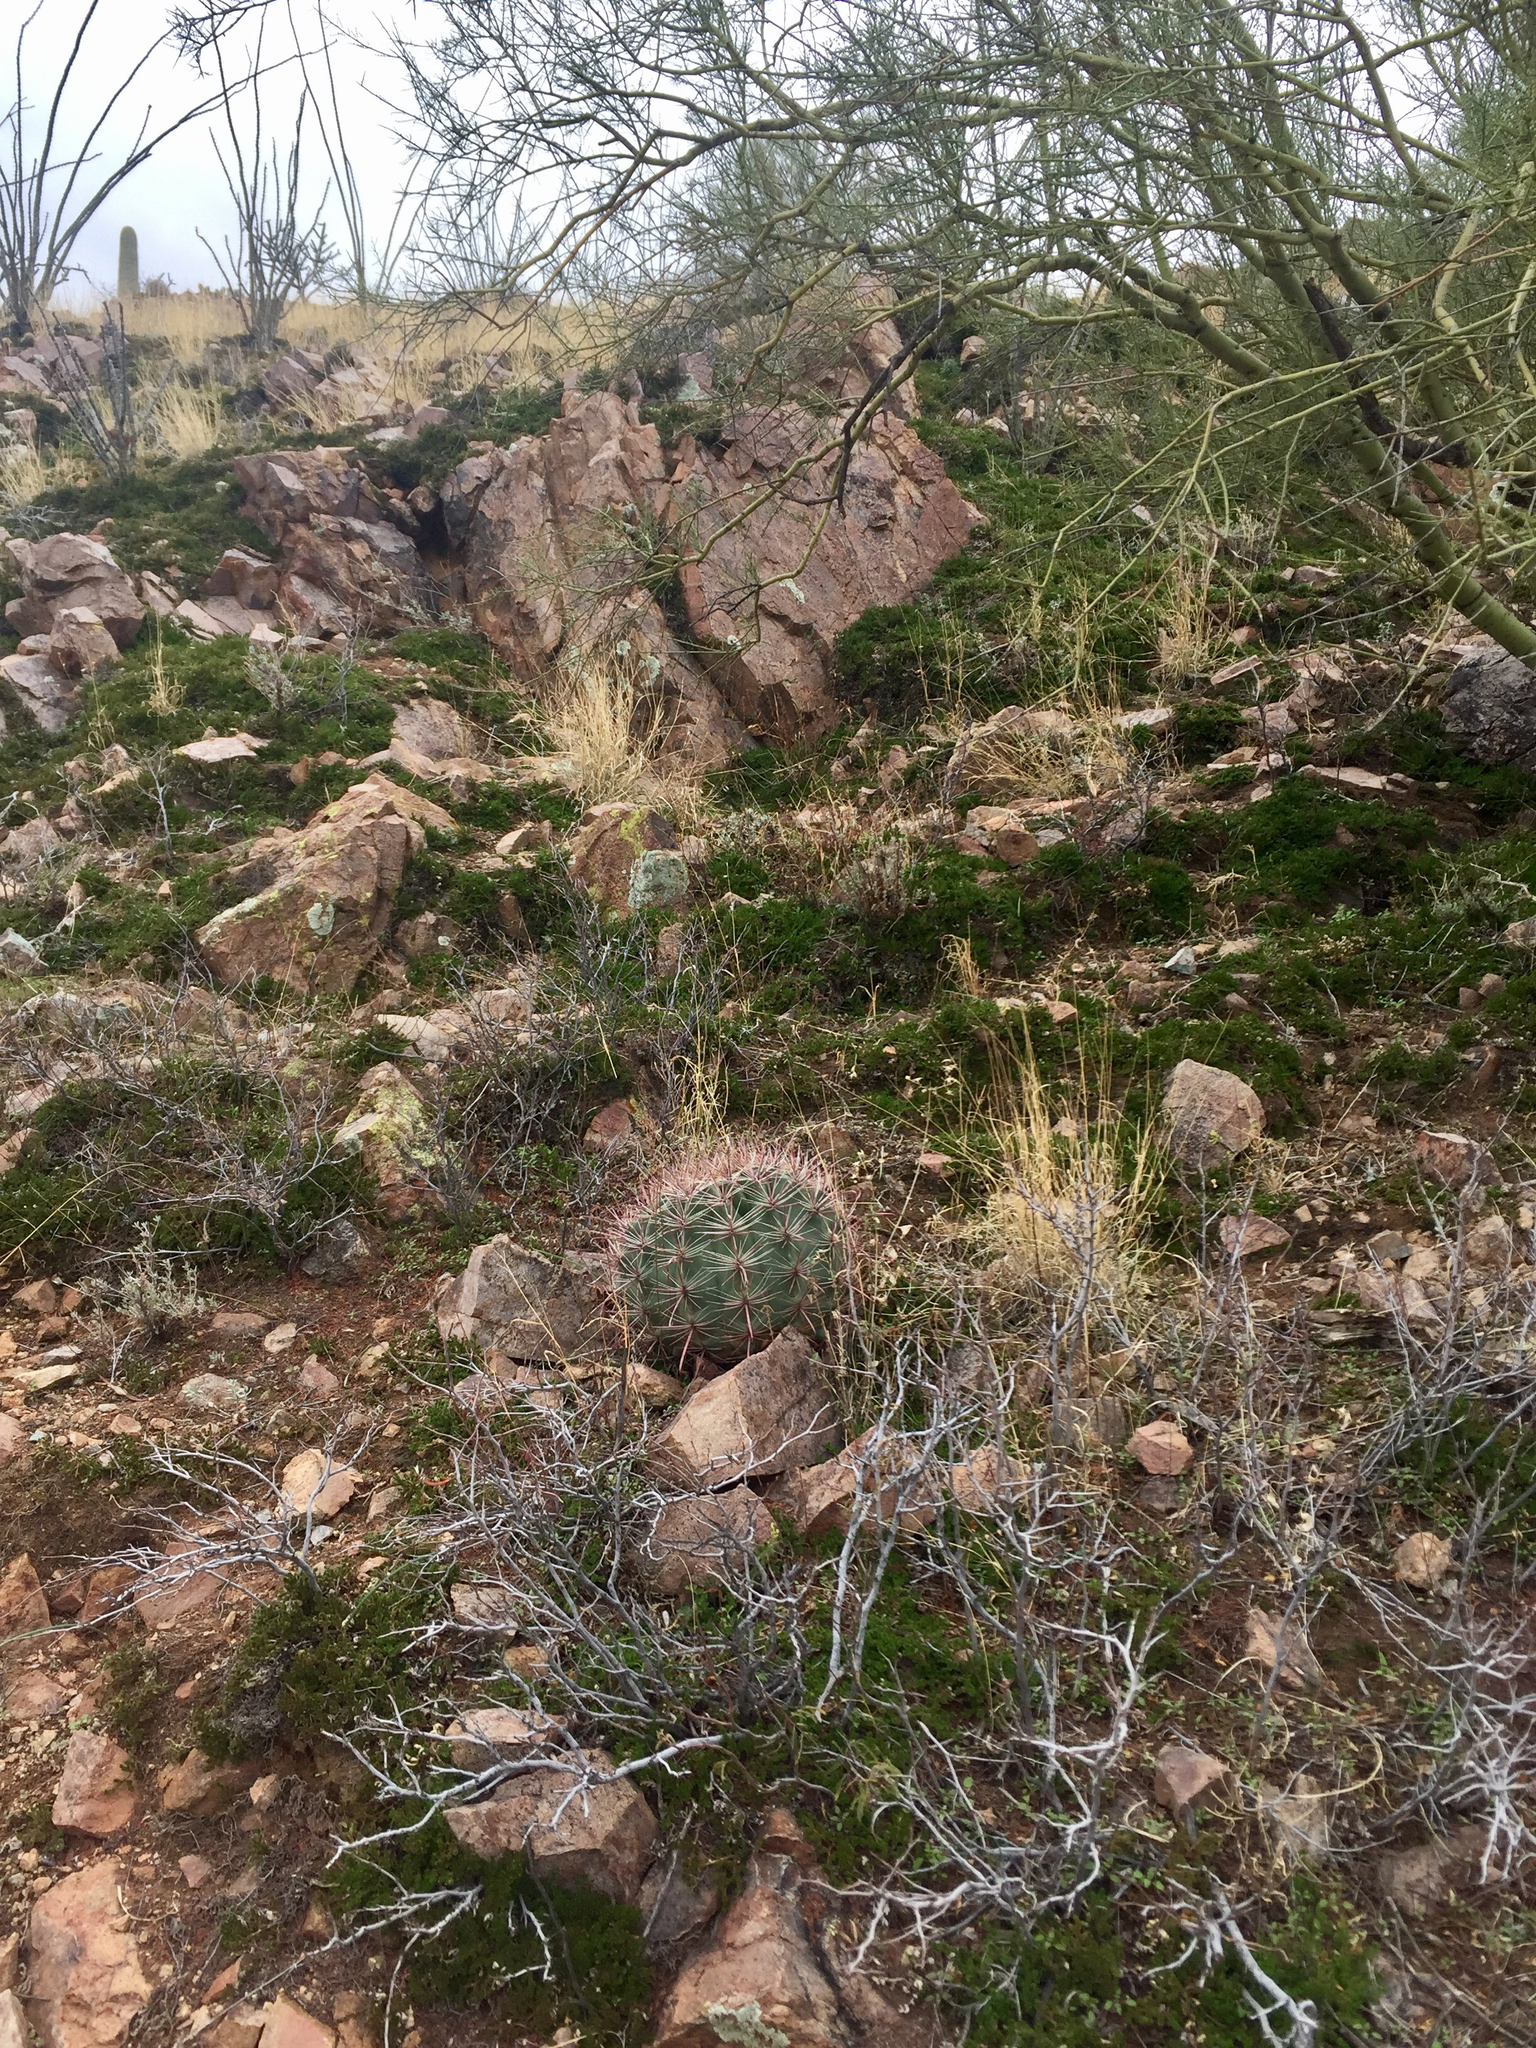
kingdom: Plantae
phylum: Tracheophyta
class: Magnoliopsida
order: Caryophyllales
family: Cactaceae
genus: Ferocactus
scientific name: Ferocactus wislizeni
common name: Candy barrel cactus
